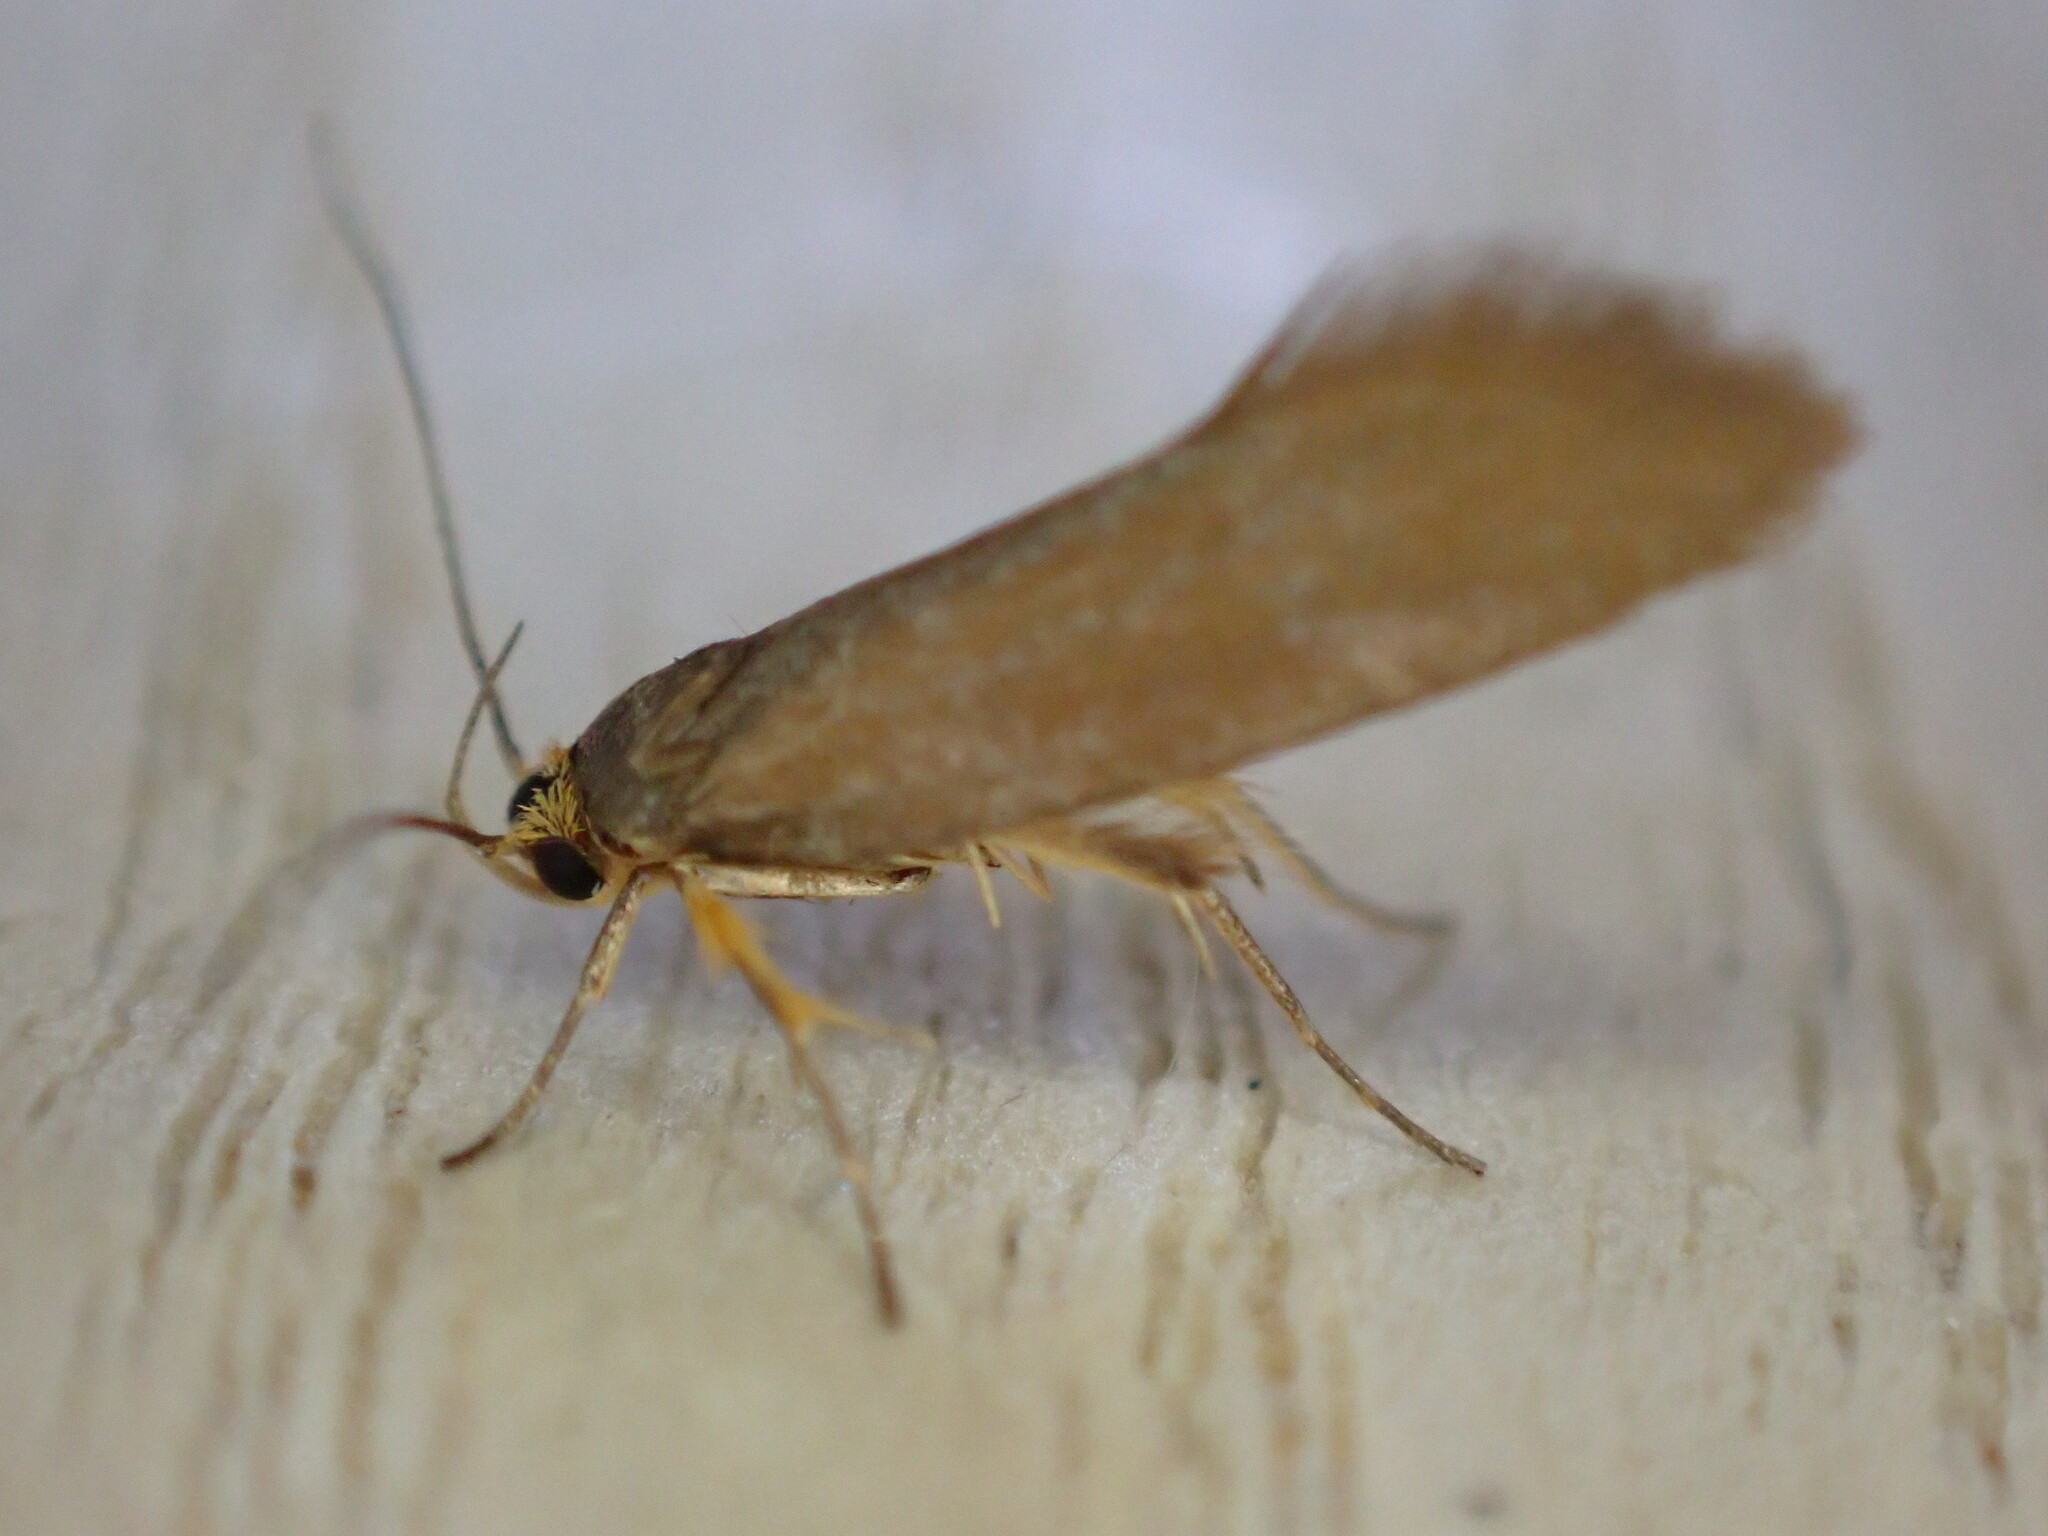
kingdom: Animalia
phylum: Arthropoda
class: Insecta
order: Lepidoptera
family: Oecophoridae
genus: Borkhausenia
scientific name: Borkhausenia Crassa unitella
